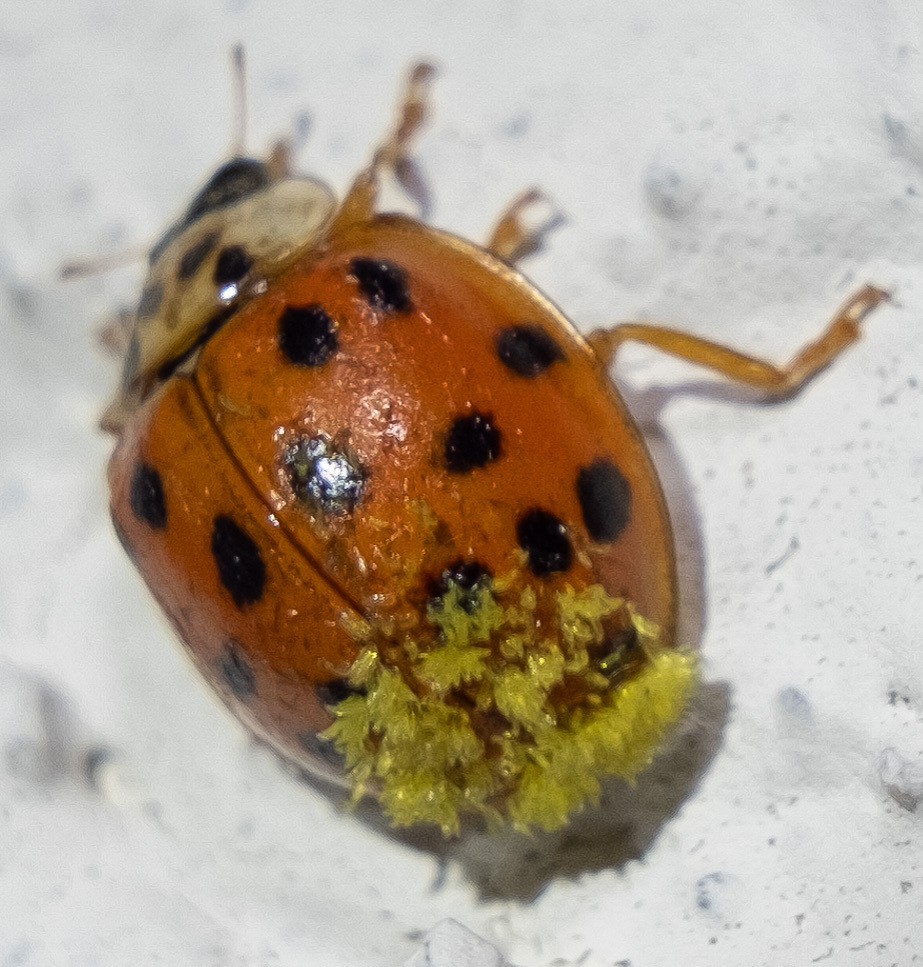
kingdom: Fungi
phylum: Ascomycota
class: Laboulbeniomycetes
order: Laboulbeniales
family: Laboulbeniaceae
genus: Hesperomyces
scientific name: Hesperomyces harmoniae
